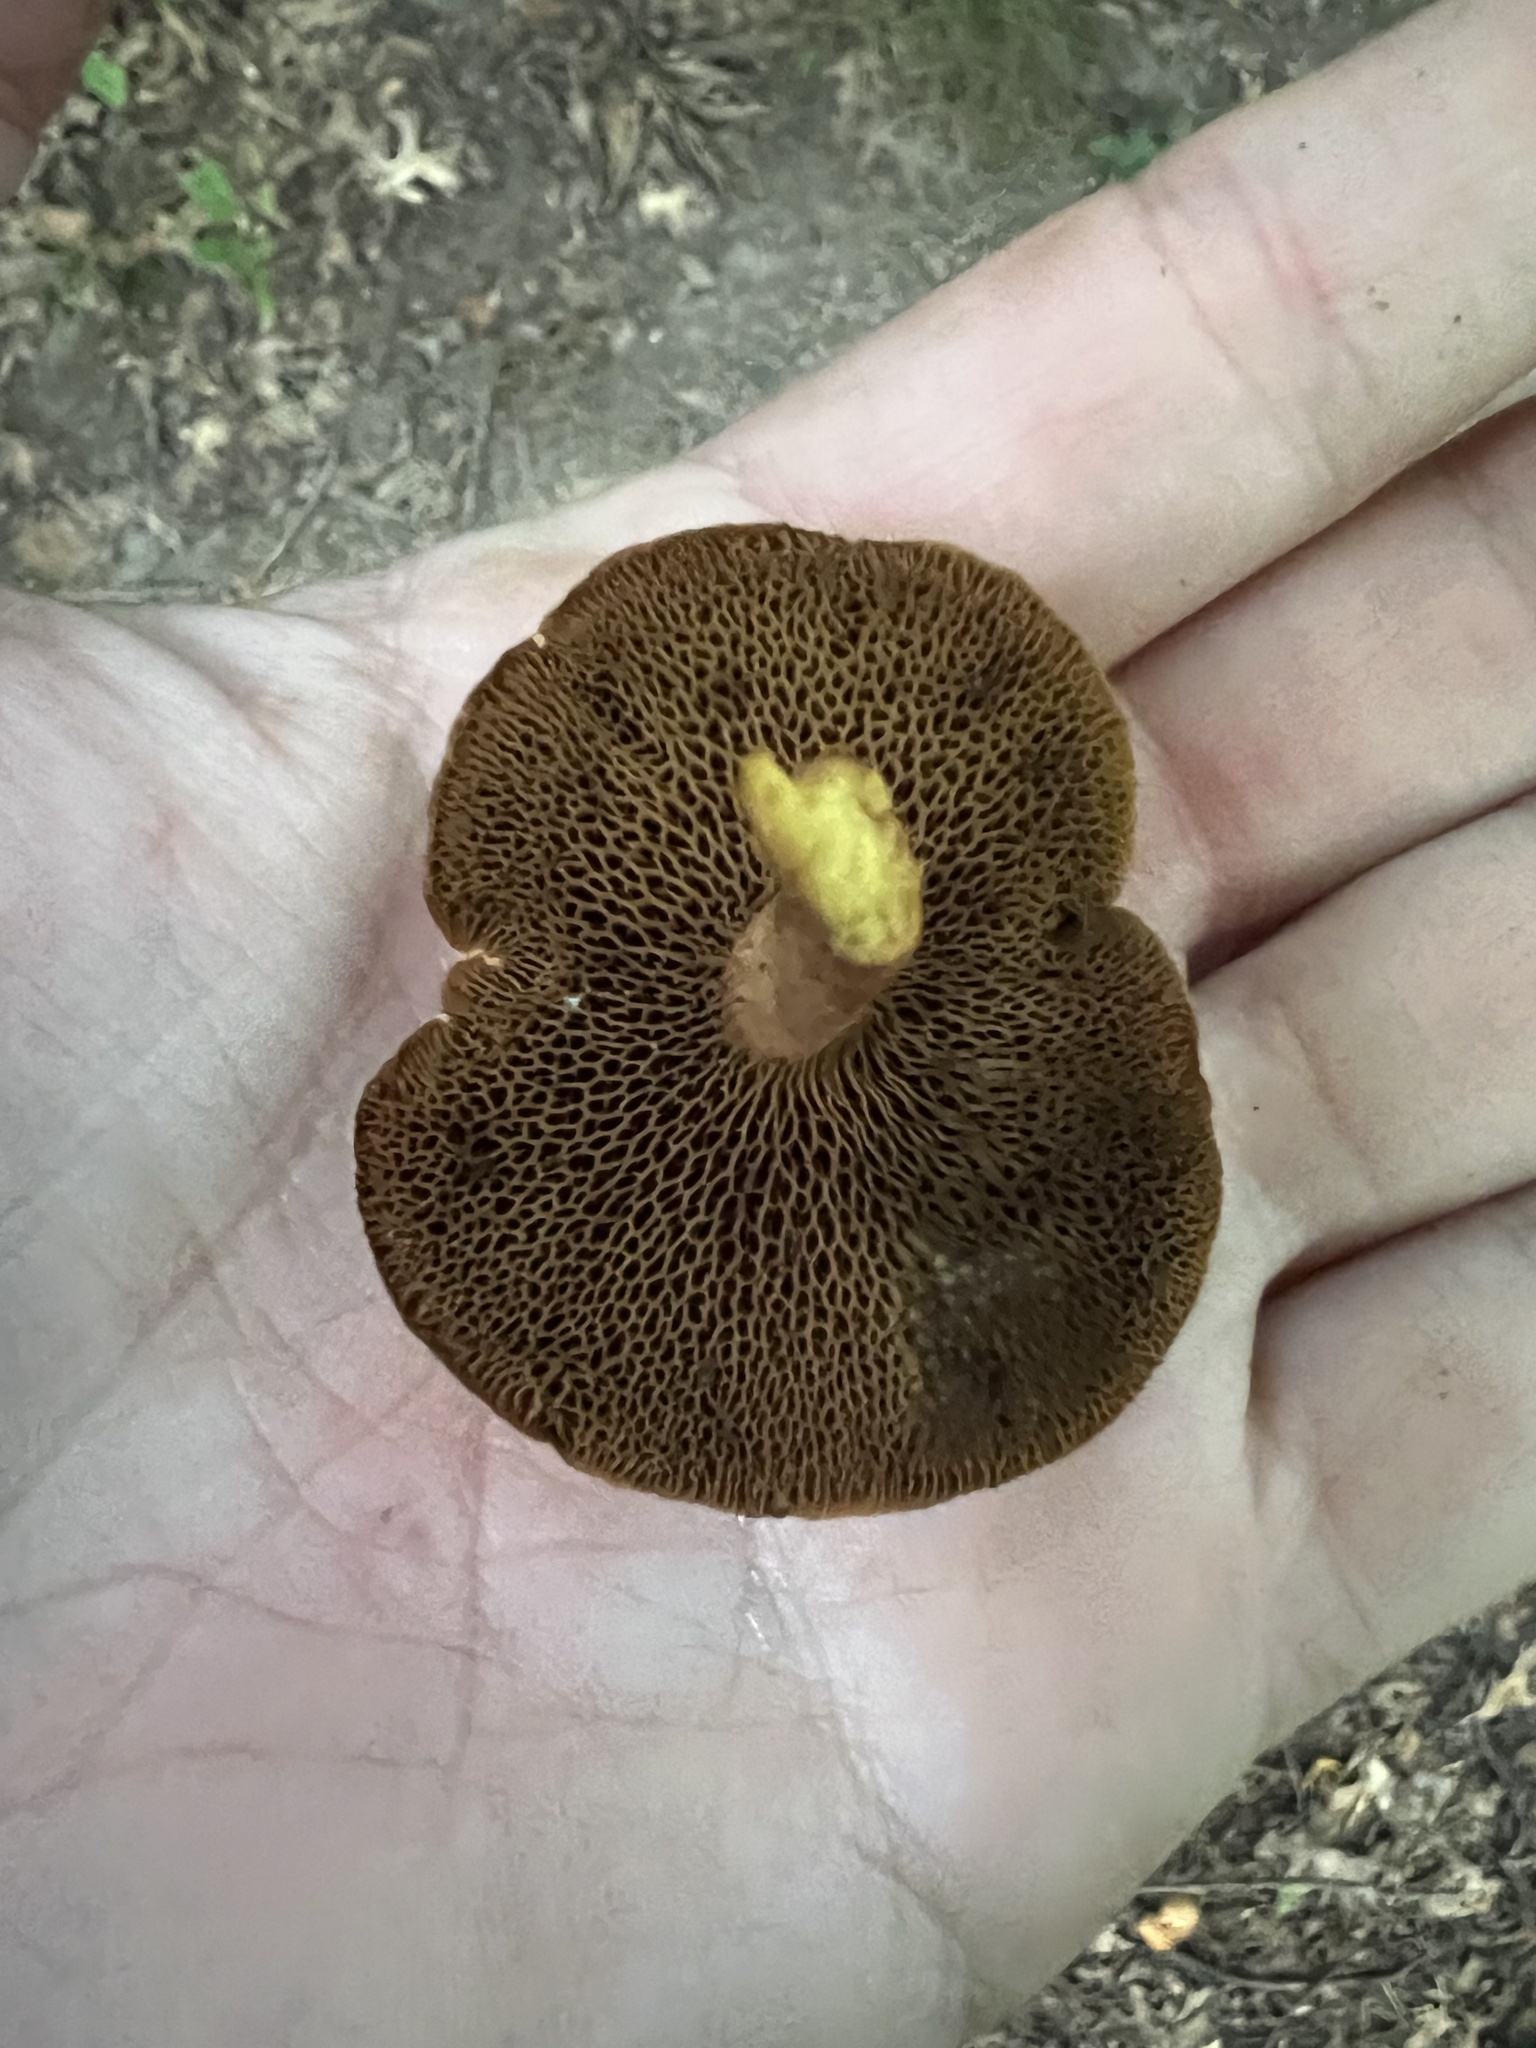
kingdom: Fungi
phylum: Basidiomycota
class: Agaricomycetes
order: Boletales
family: Boletaceae
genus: Chalciporus
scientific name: Chalciporus piperatus
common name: Peppery bolete
